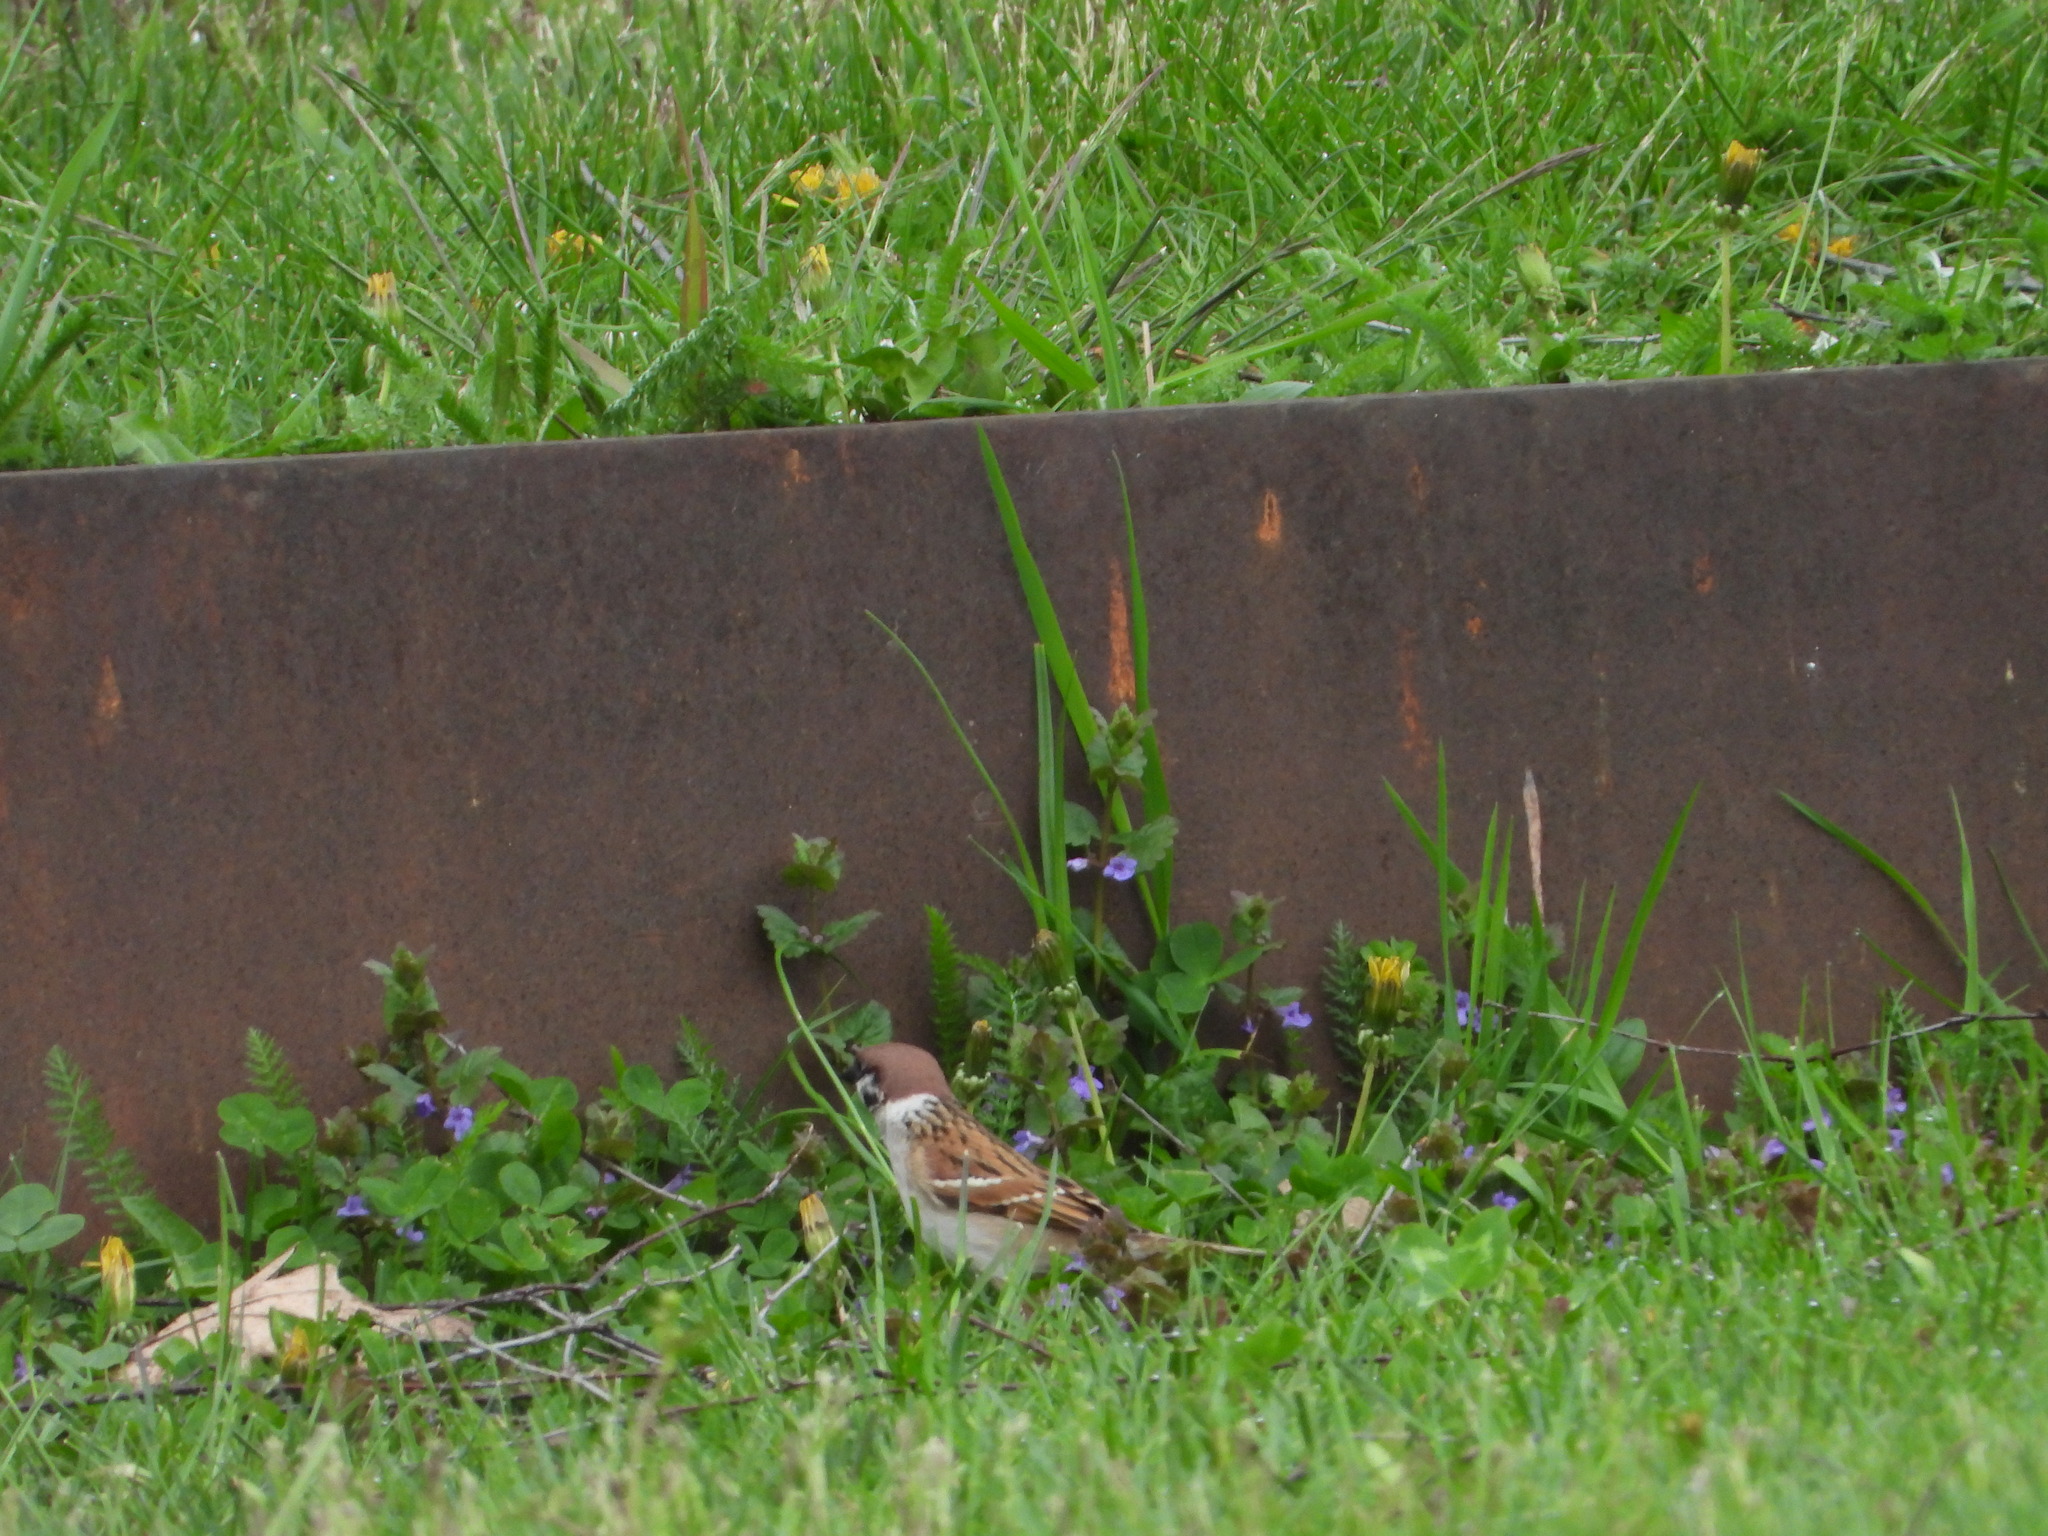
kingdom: Animalia
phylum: Chordata
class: Aves
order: Passeriformes
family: Passeridae
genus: Passer
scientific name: Passer montanus
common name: Eurasian tree sparrow
